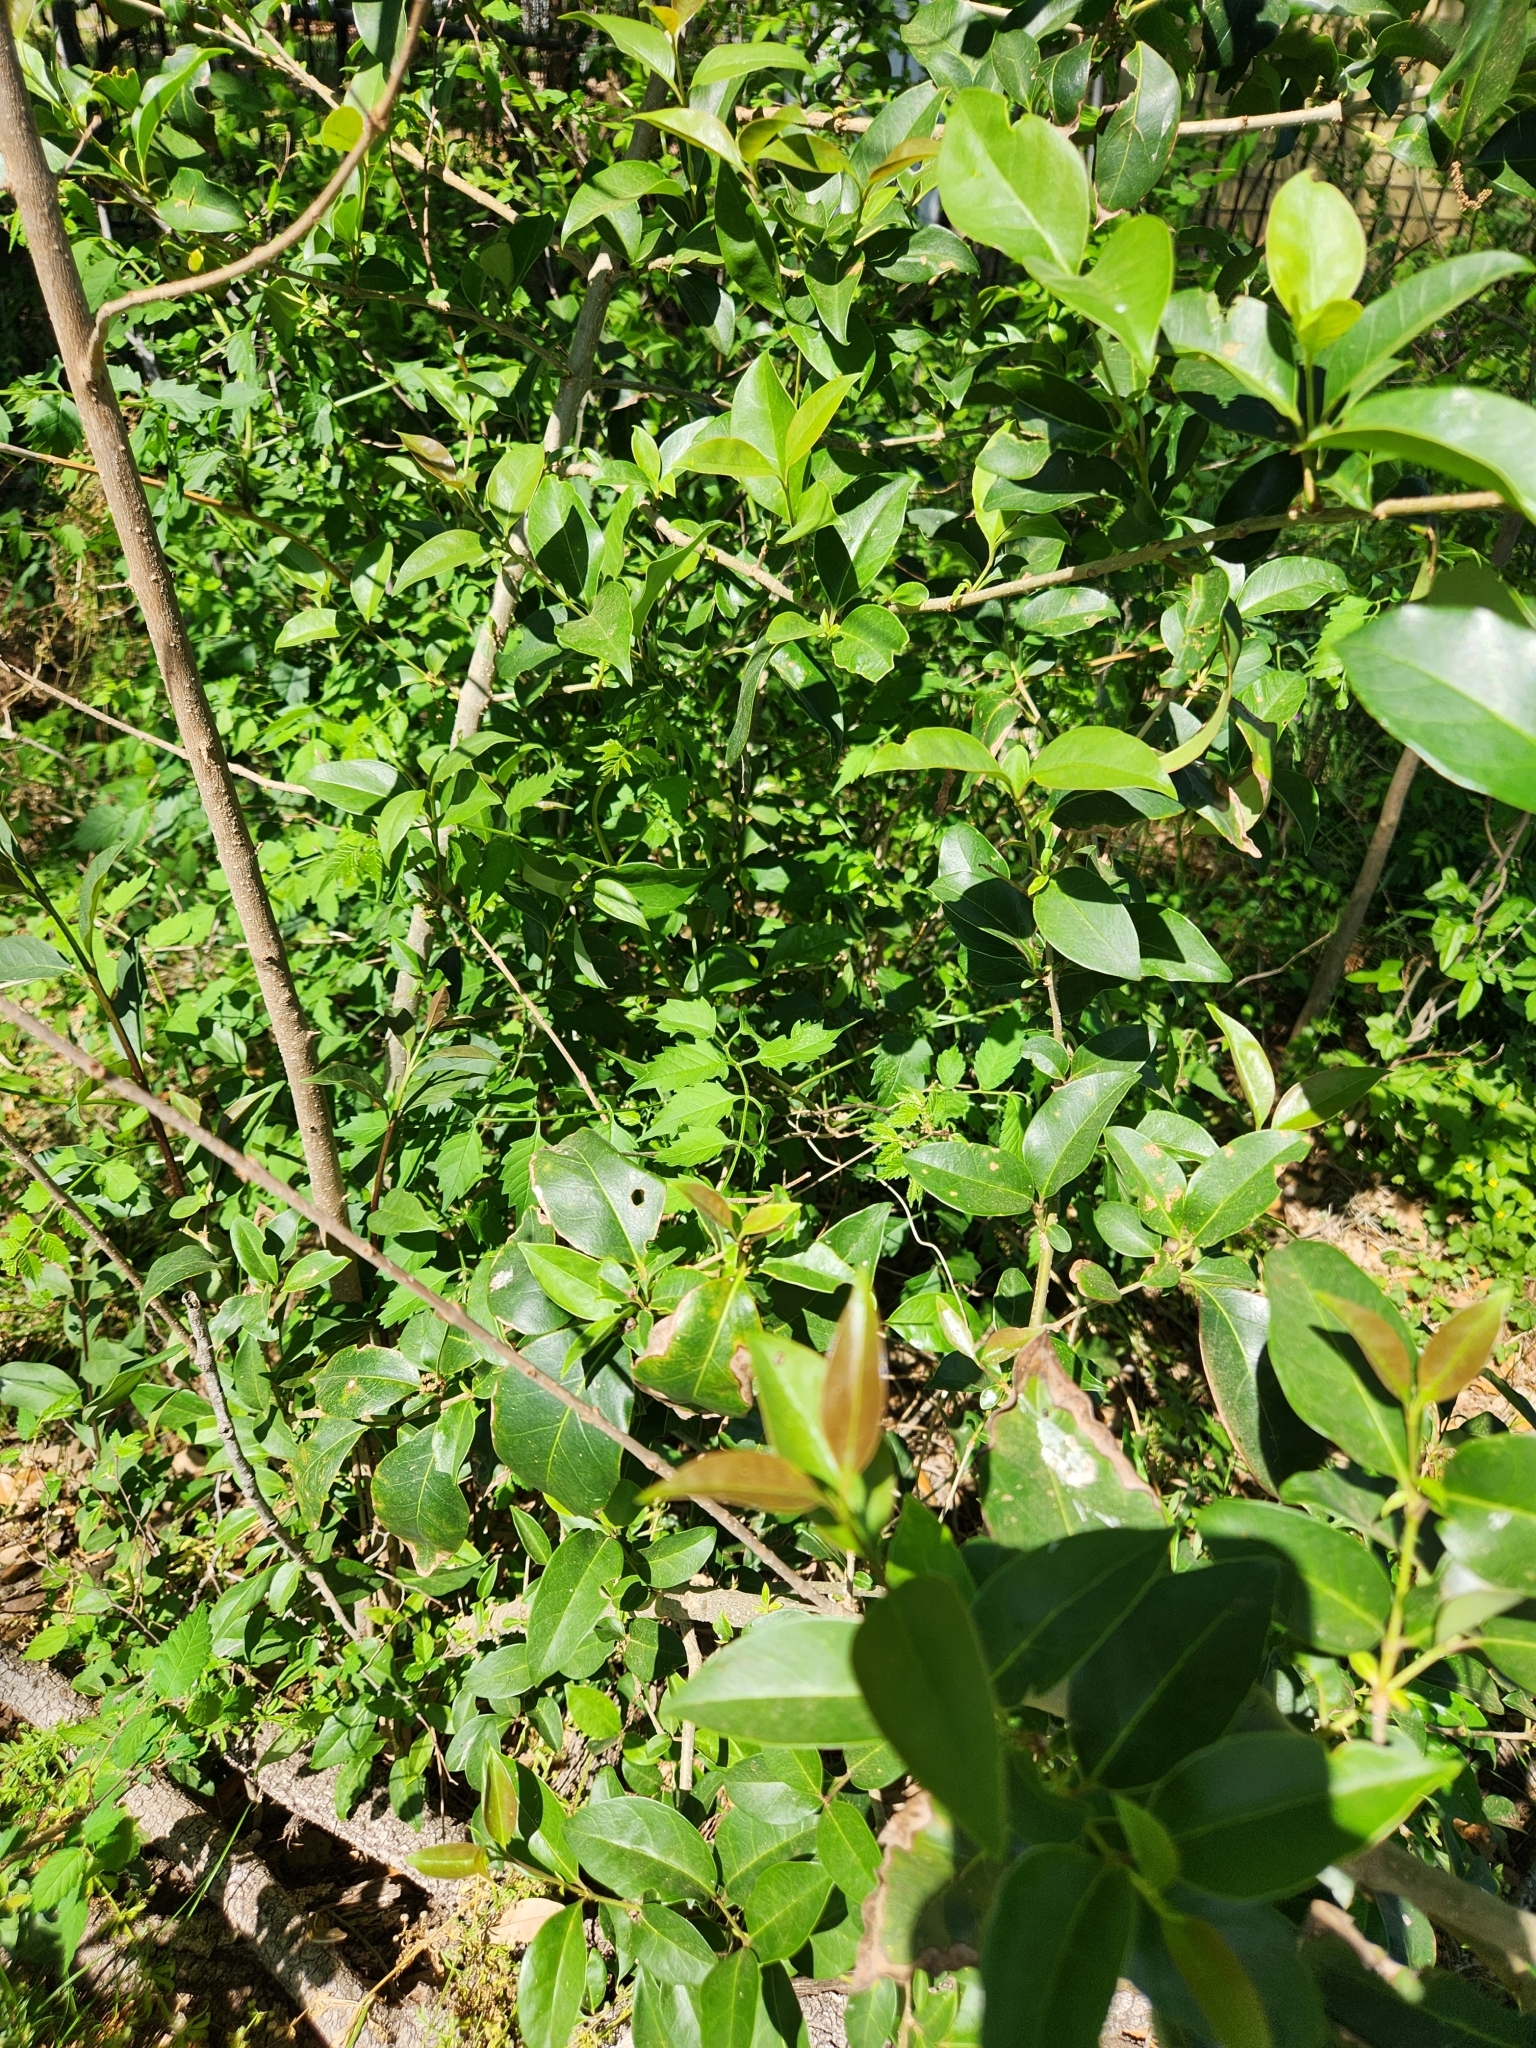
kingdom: Plantae
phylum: Tracheophyta
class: Magnoliopsida
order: Lamiales
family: Oleaceae
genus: Ligustrum
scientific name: Ligustrum lucidum
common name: Glossy privet
